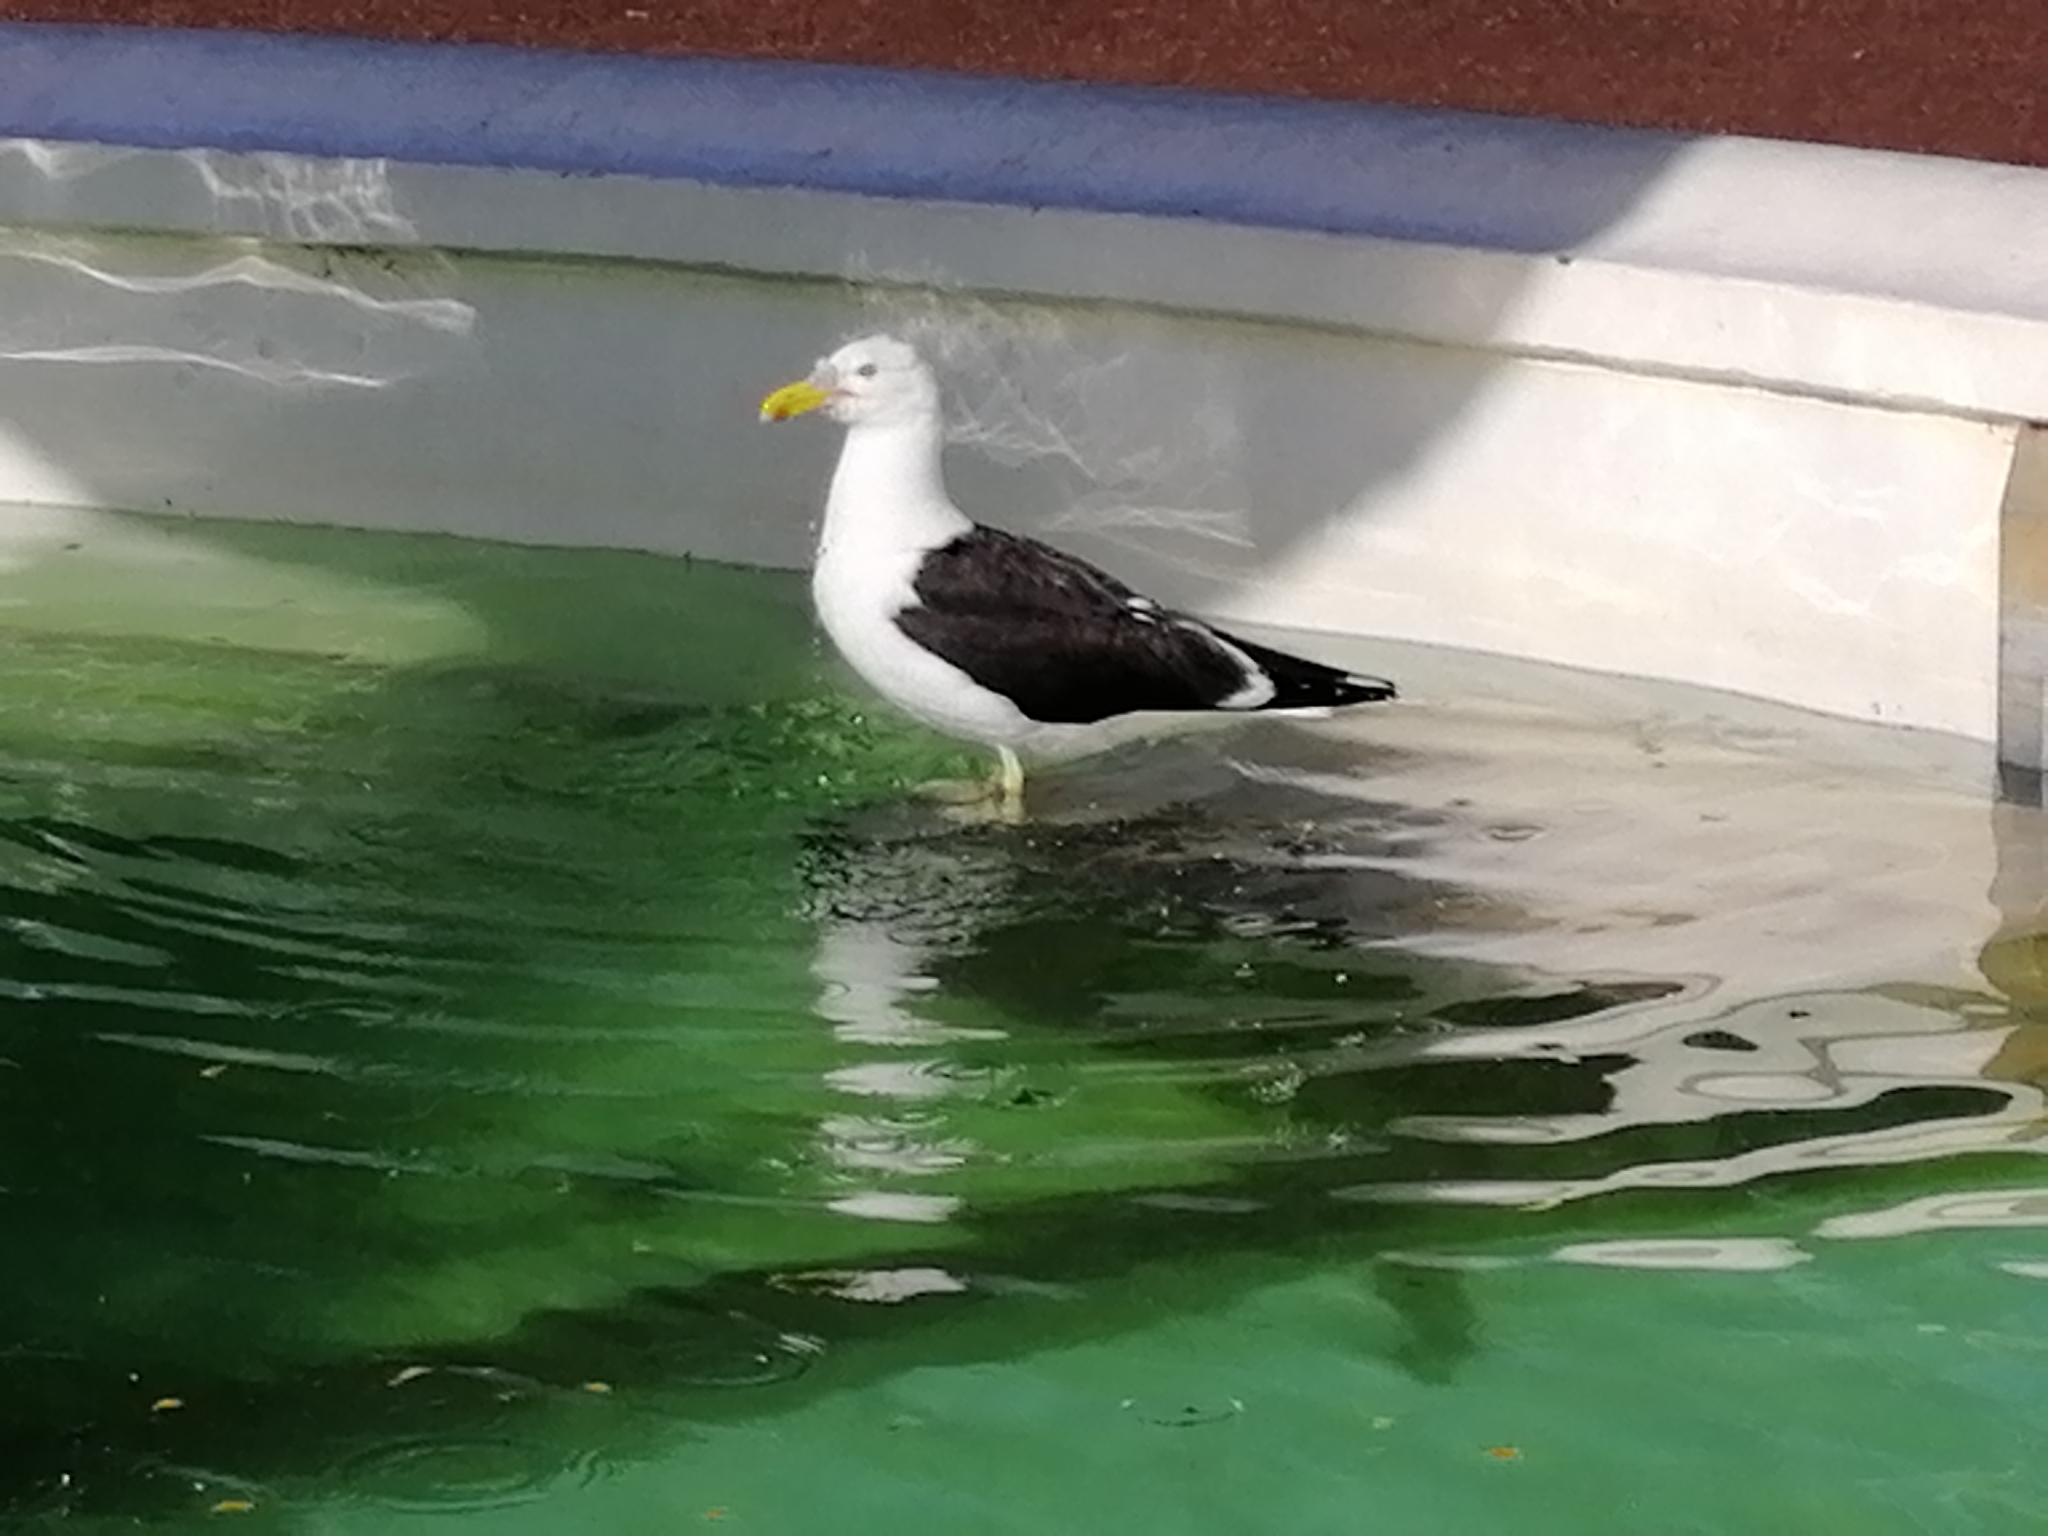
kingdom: Animalia
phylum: Chordata
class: Aves
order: Charadriiformes
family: Laridae
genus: Larus
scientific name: Larus dominicanus
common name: Kelp gull
